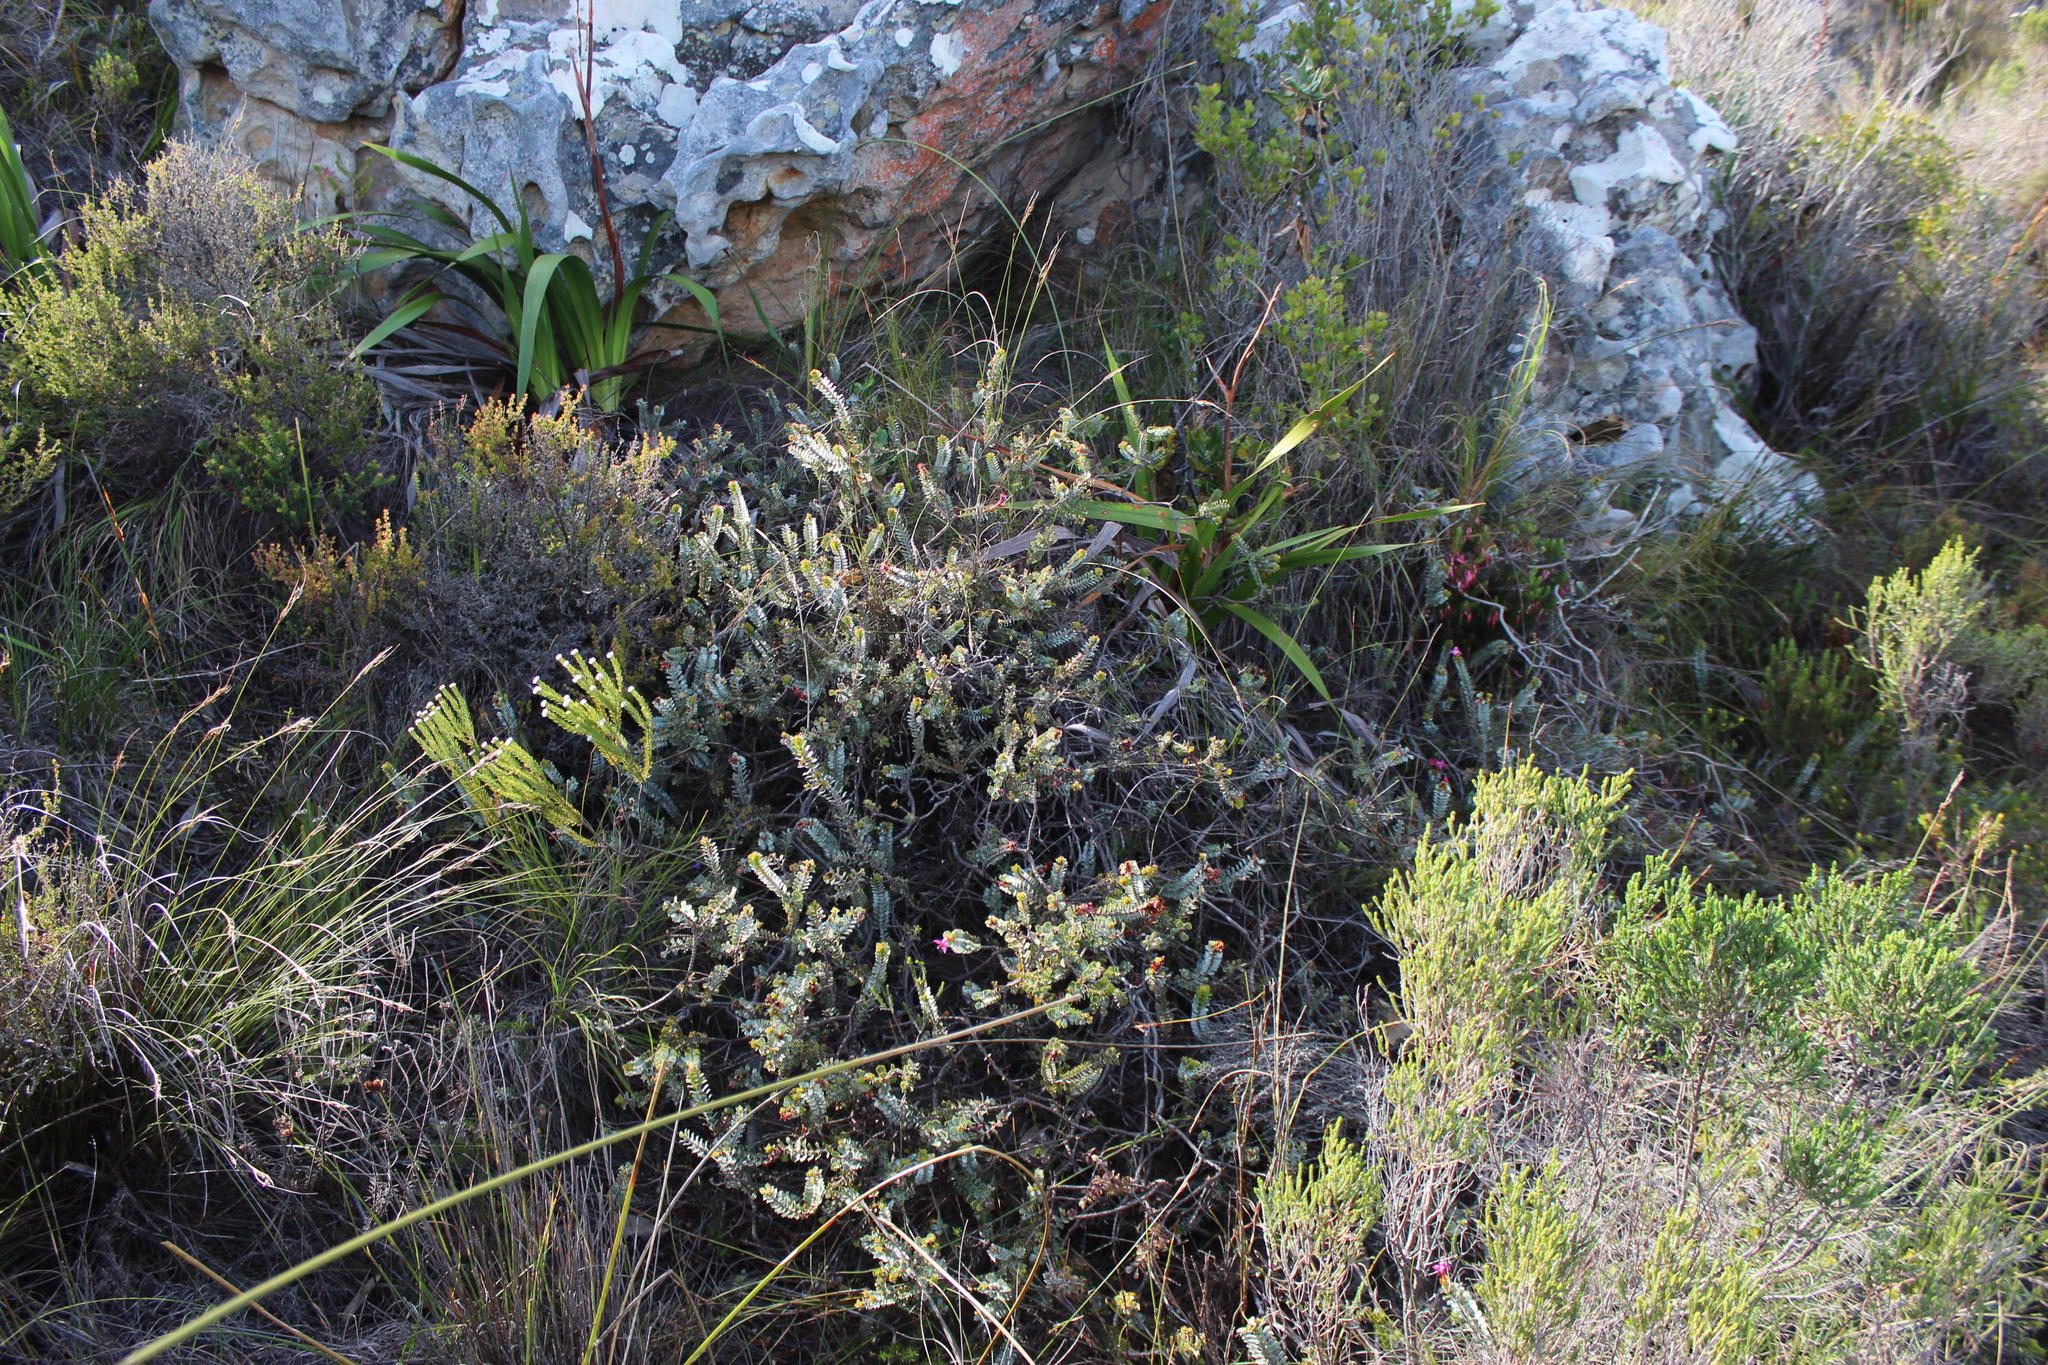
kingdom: Plantae
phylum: Tracheophyta
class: Magnoliopsida
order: Myrtales
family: Penaeaceae
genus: Saltera
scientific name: Saltera sarcocolla
